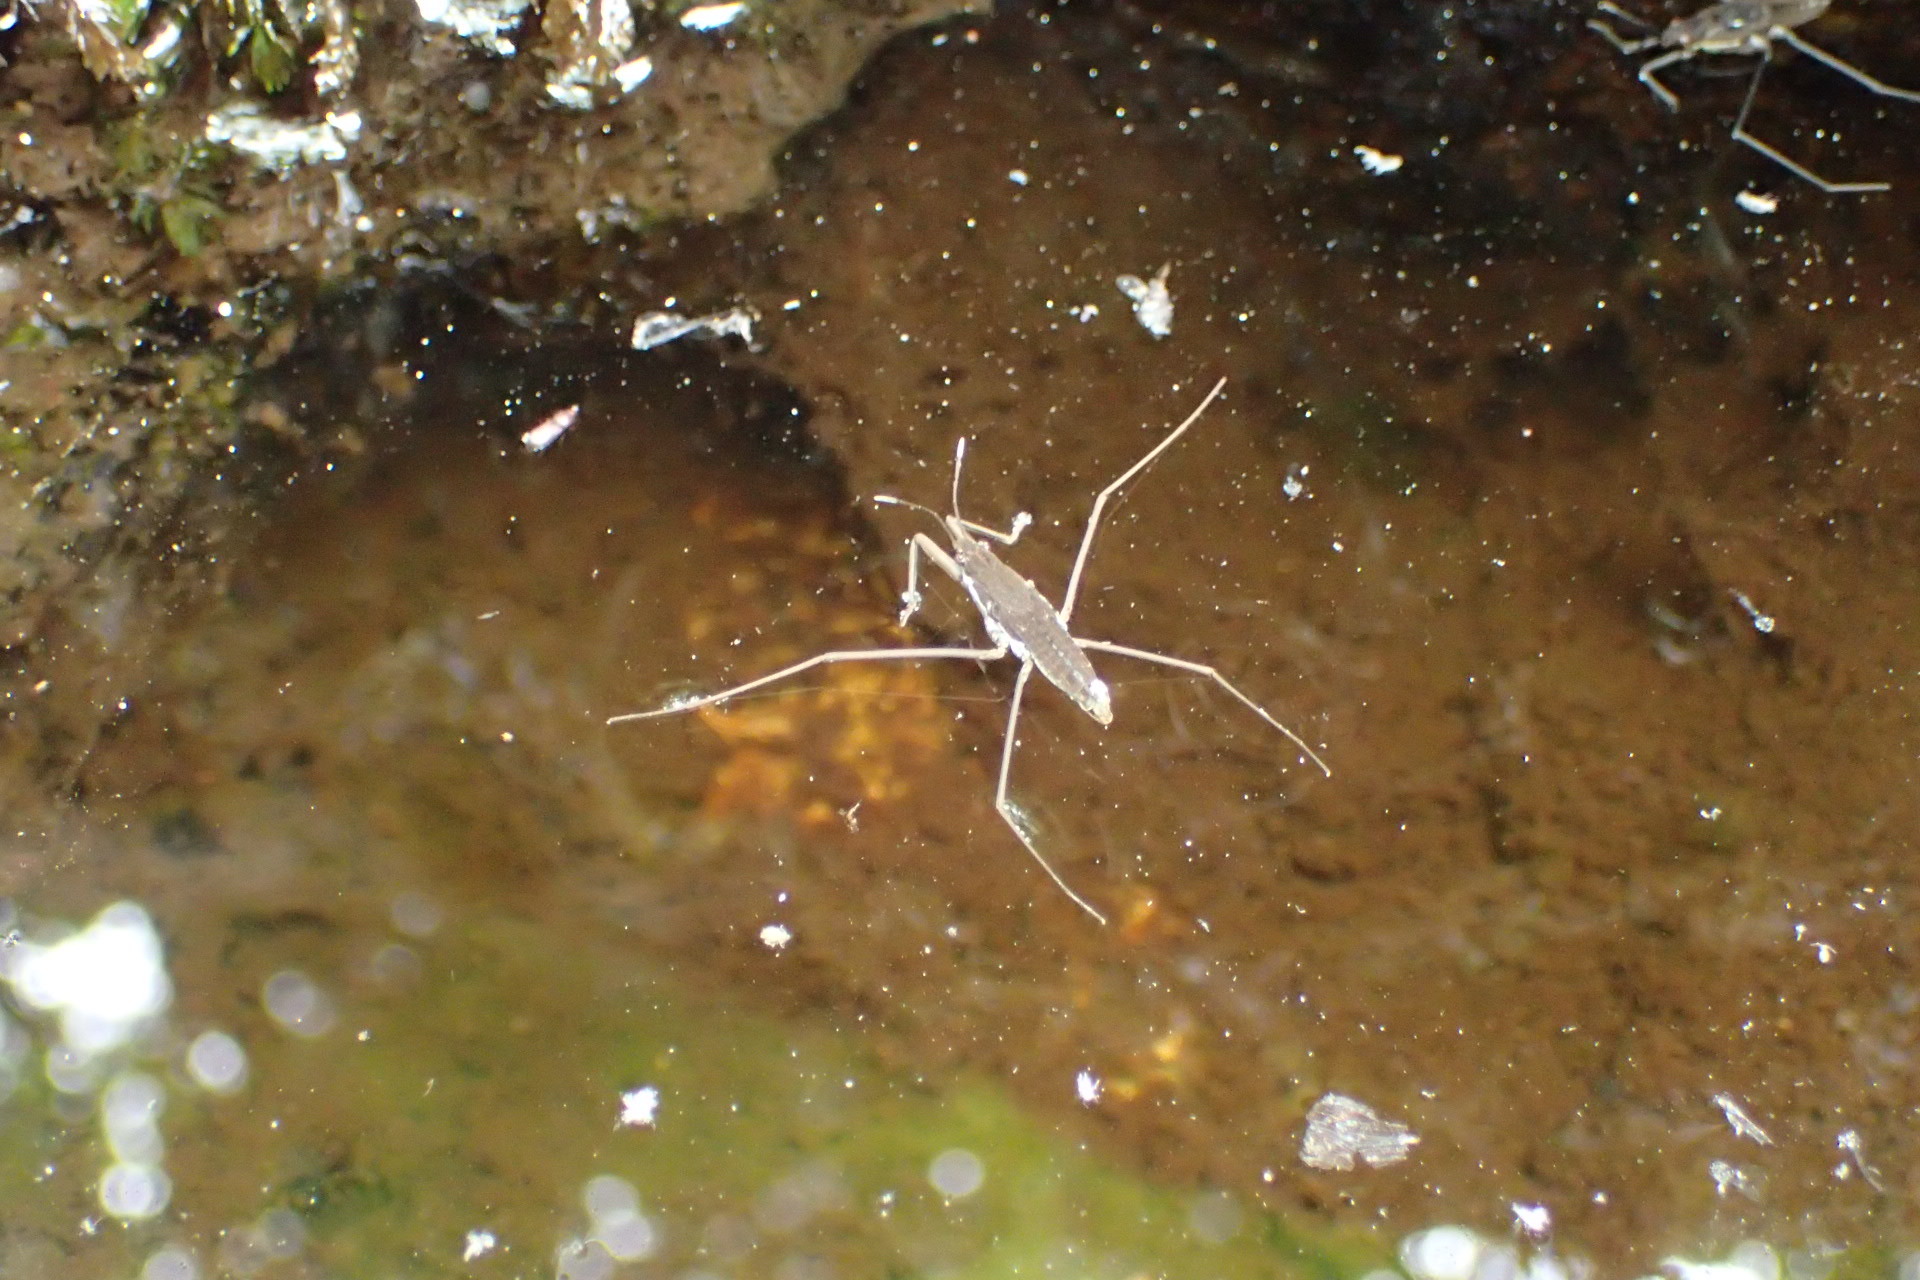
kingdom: Animalia
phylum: Arthropoda
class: Insecta
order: Hemiptera
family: Gerridae
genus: Aquarius
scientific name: Aquarius remigis
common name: Common water strider
